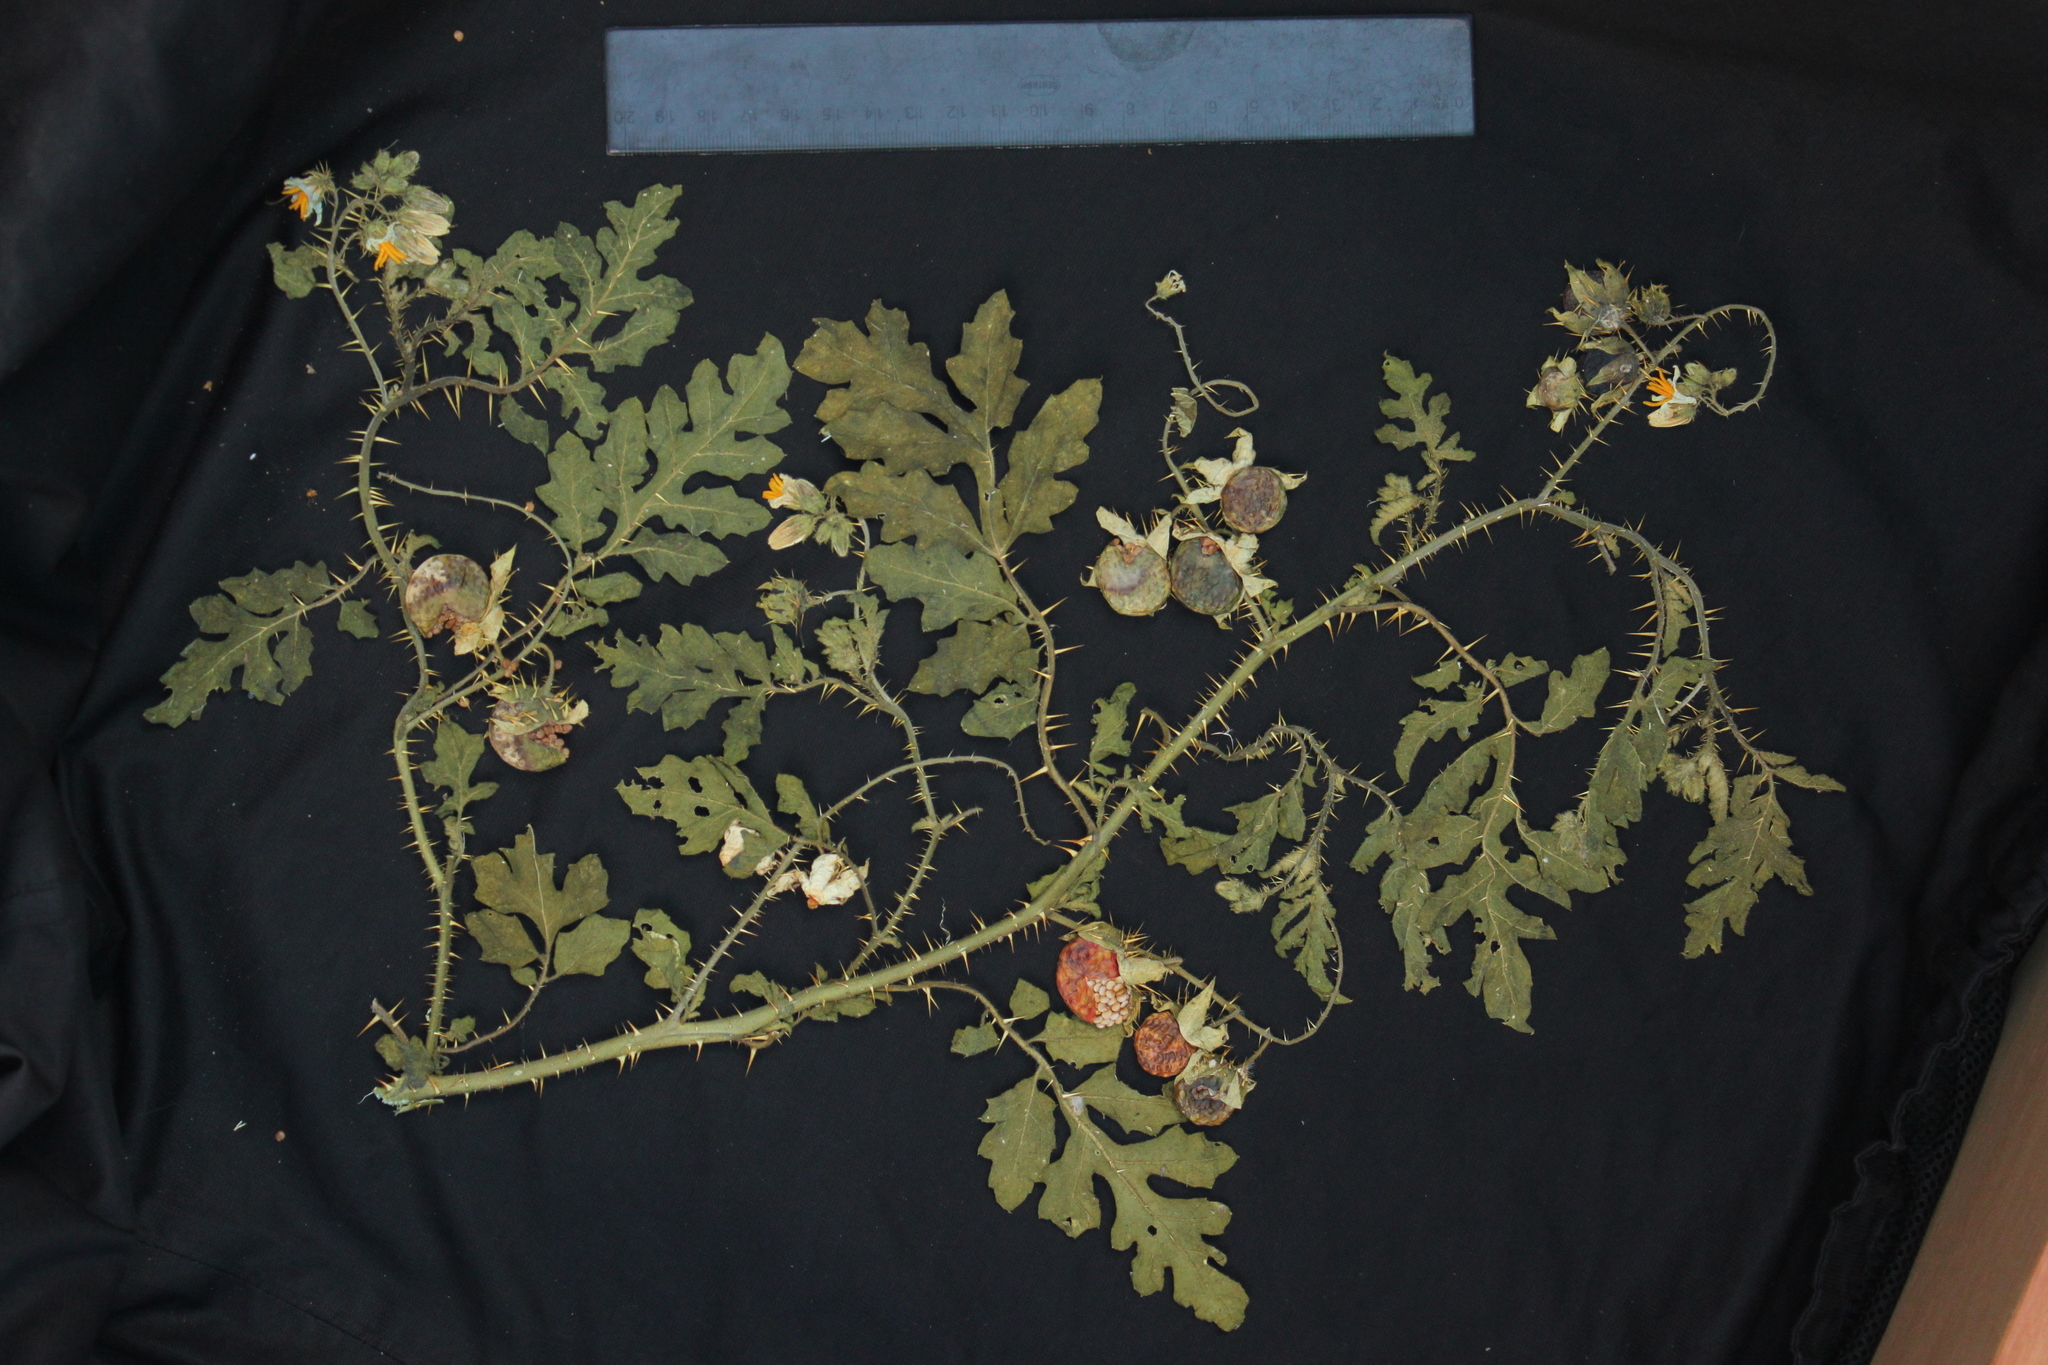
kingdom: Plantae
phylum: Tracheophyta
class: Magnoliopsida
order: Solanales
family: Solanaceae
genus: Solanum
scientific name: Solanum sisymbriifolium
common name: Red buffalo-bur
